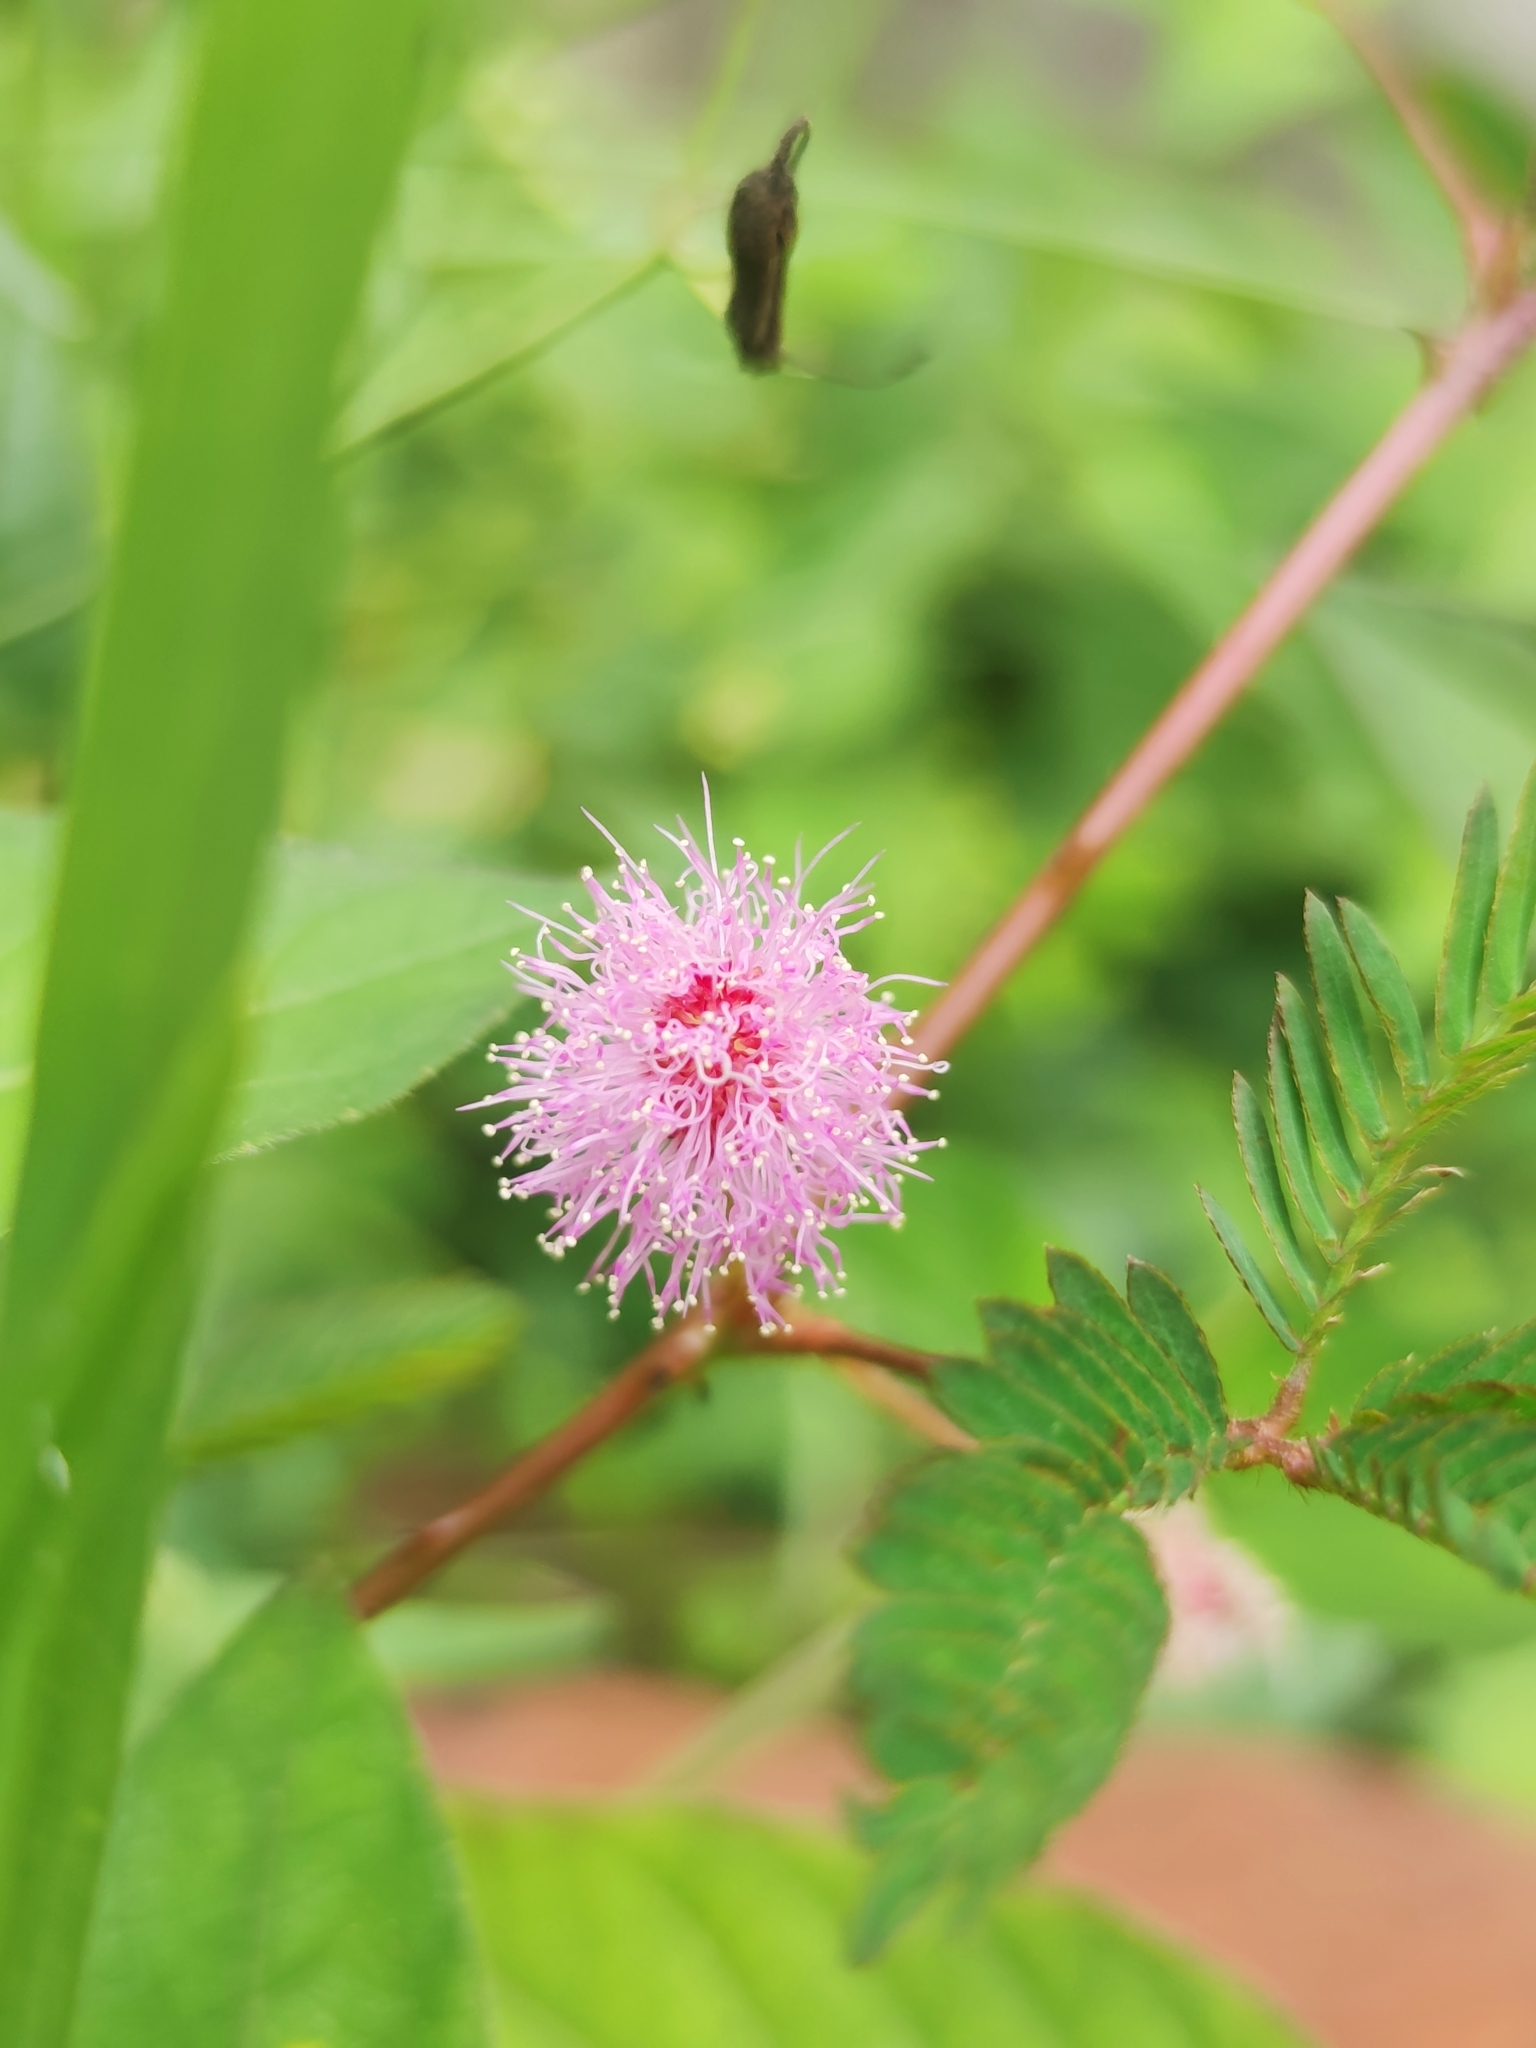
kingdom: Plantae
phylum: Tracheophyta
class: Magnoliopsida
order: Fabales
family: Fabaceae
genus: Mimosa
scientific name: Mimosa pudica
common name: Sensitive plant
